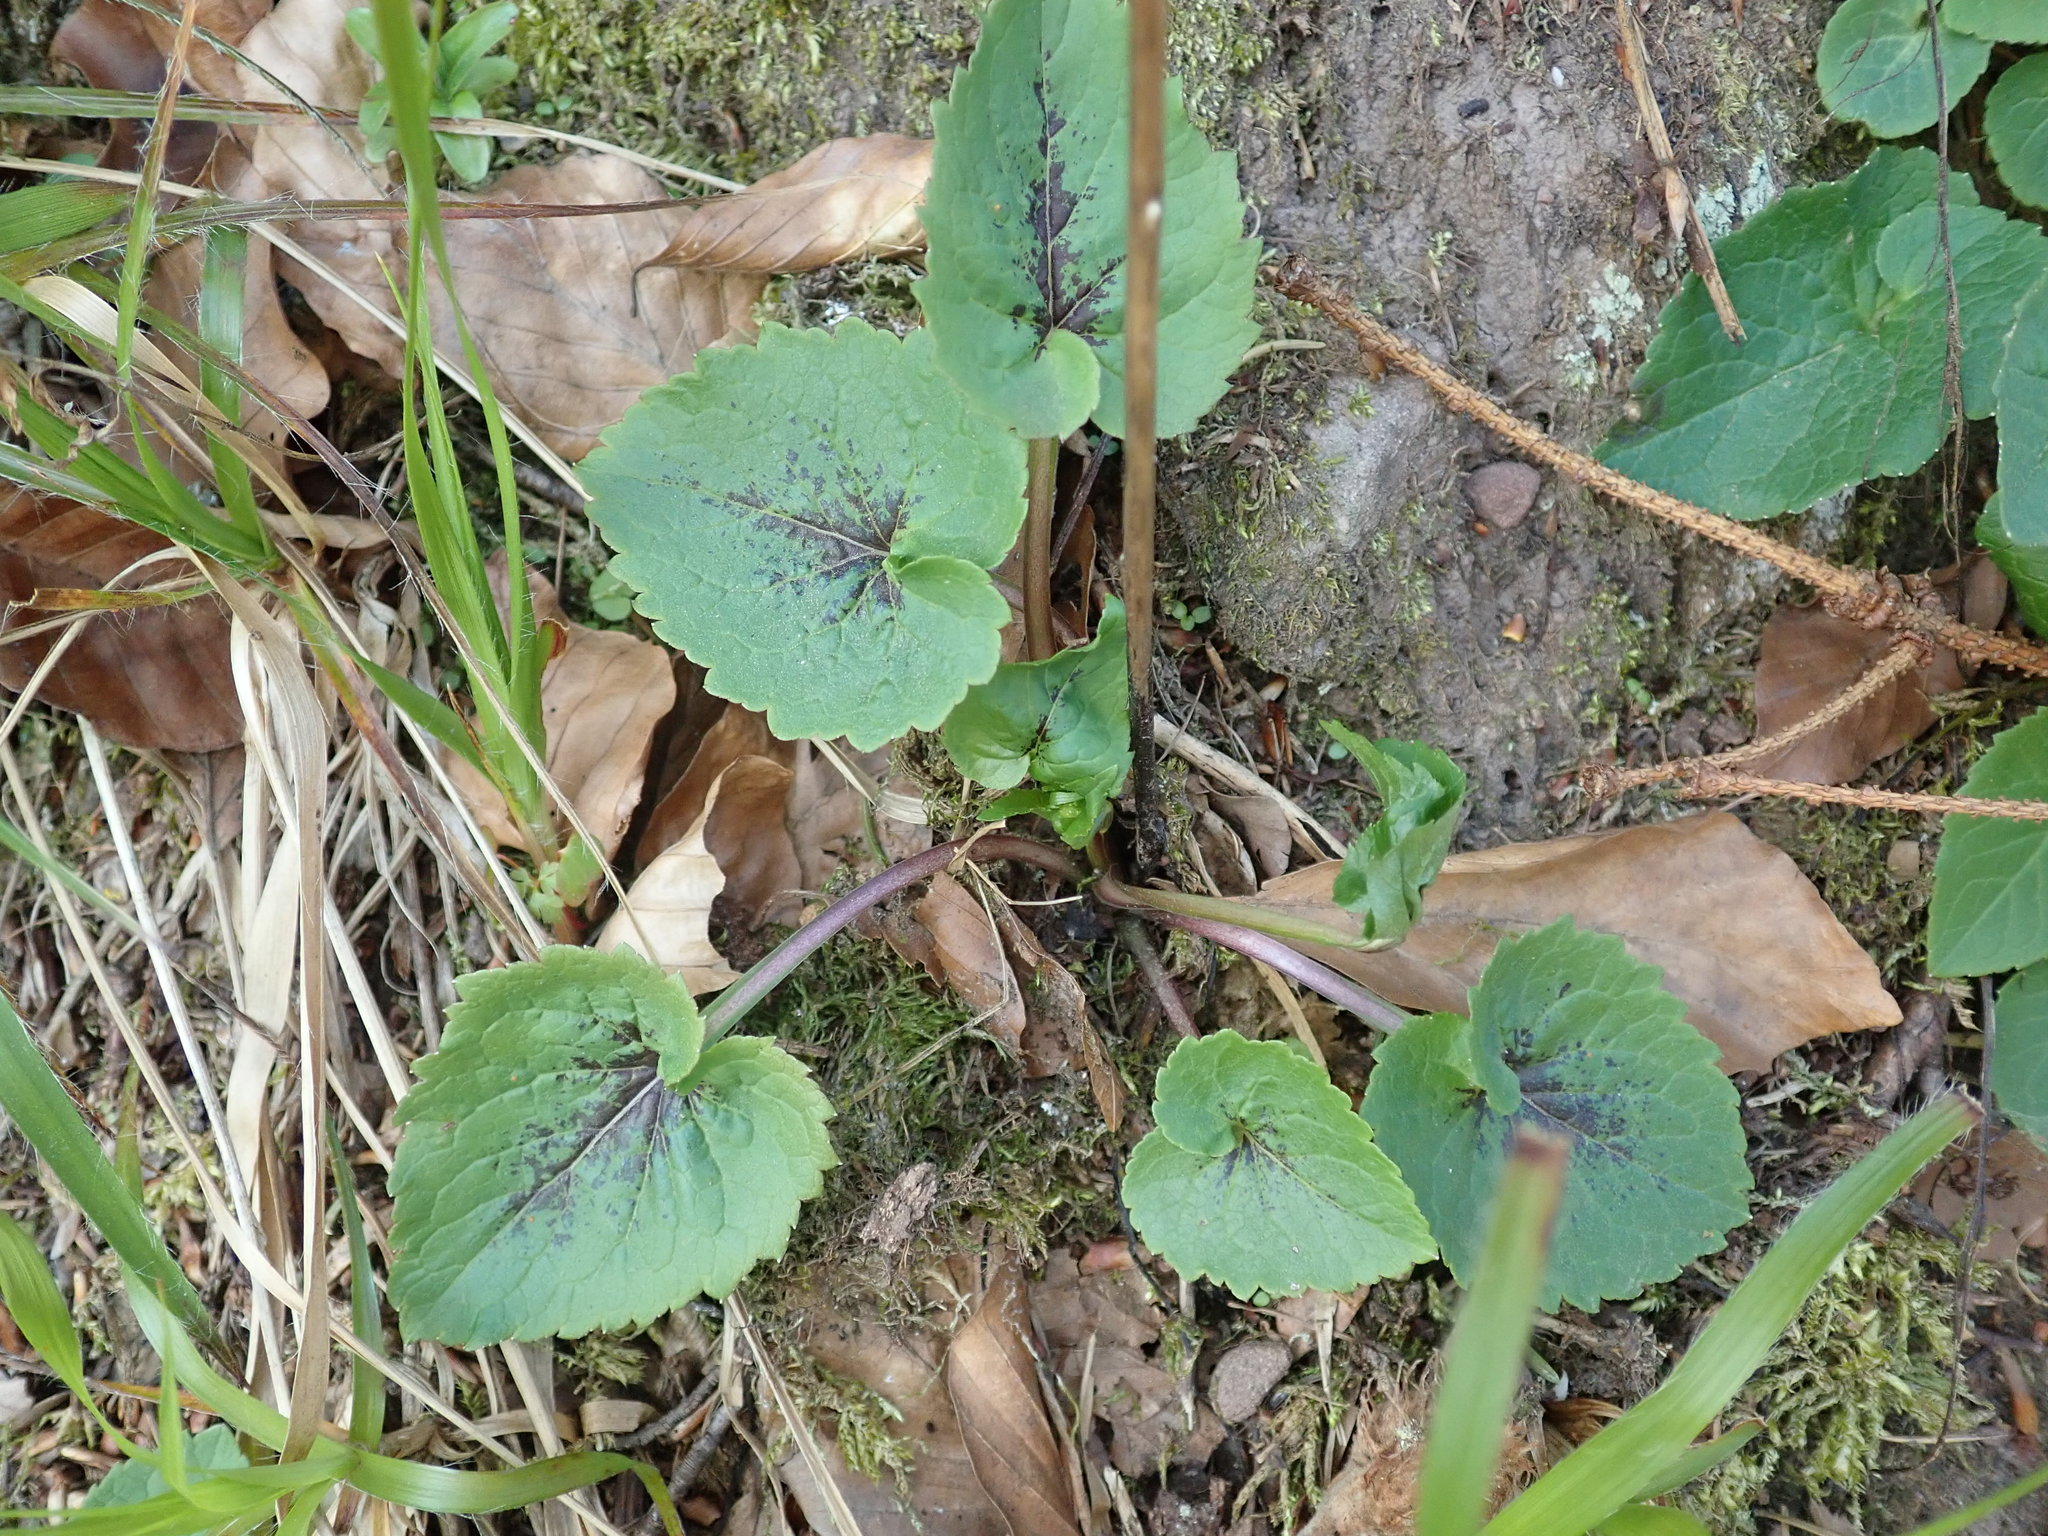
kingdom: Plantae
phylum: Tracheophyta
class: Magnoliopsida
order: Asterales
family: Campanulaceae
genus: Phyteuma
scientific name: Phyteuma spicatum
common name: Spiked rampion
